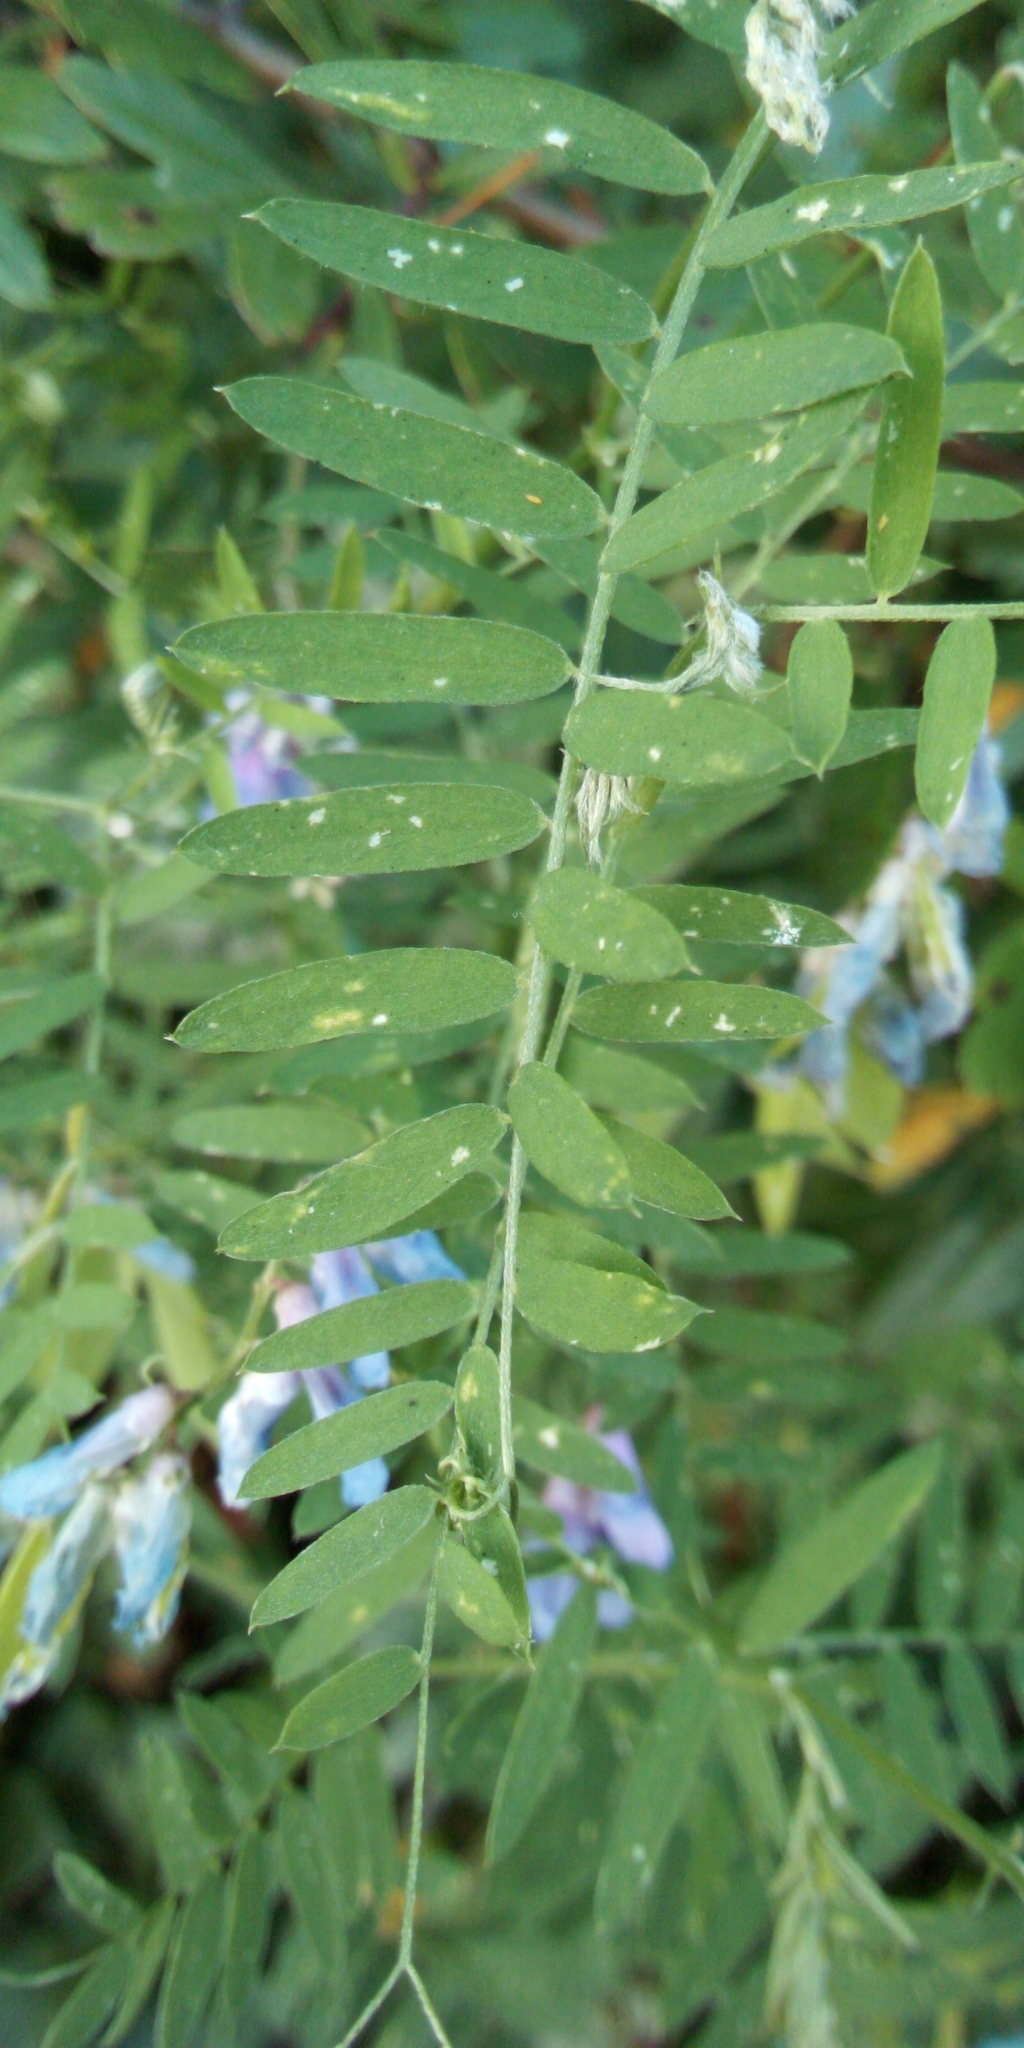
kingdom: Plantae
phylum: Tracheophyta
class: Magnoliopsida
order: Fabales
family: Fabaceae
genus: Vicia
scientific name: Vicia cracca
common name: Bird vetch
